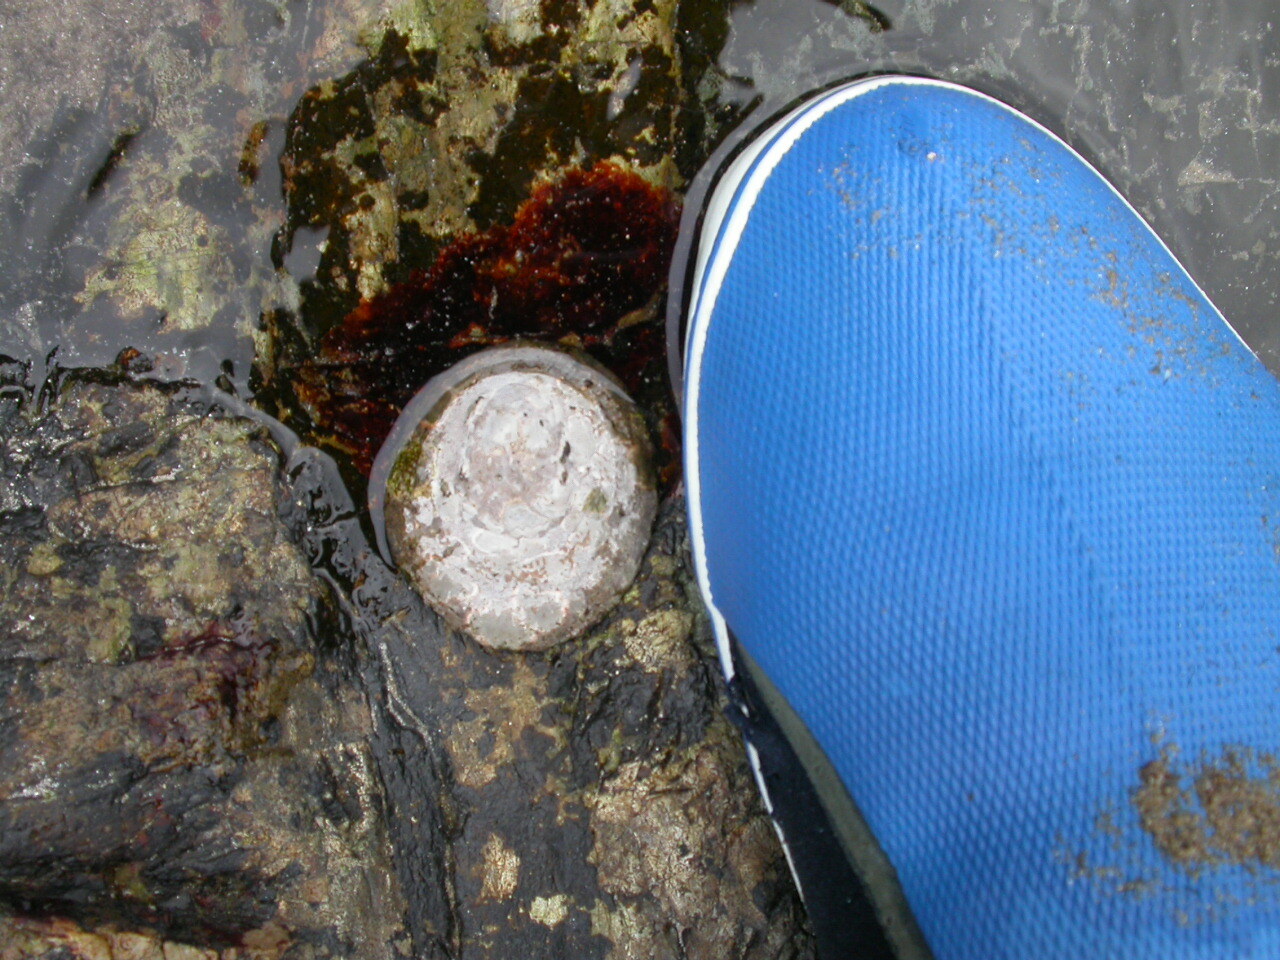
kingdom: Animalia
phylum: Mollusca
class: Gastropoda
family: Nacellidae
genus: Cellana
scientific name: Cellana tramoserica
